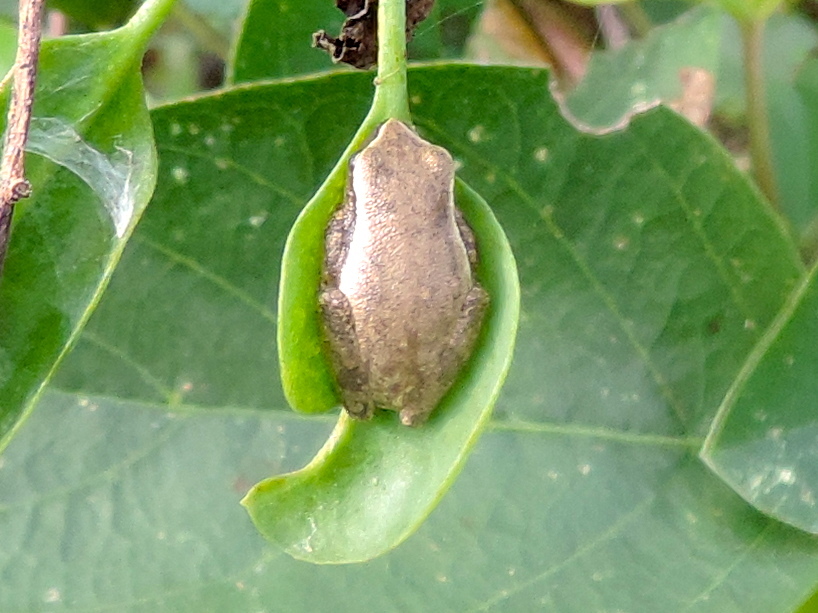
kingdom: Animalia
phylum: Chordata
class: Amphibia
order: Anura
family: Hylidae
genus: Tlalocohyla
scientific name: Tlalocohyla smithii
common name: Dwarf mexican treefrog
